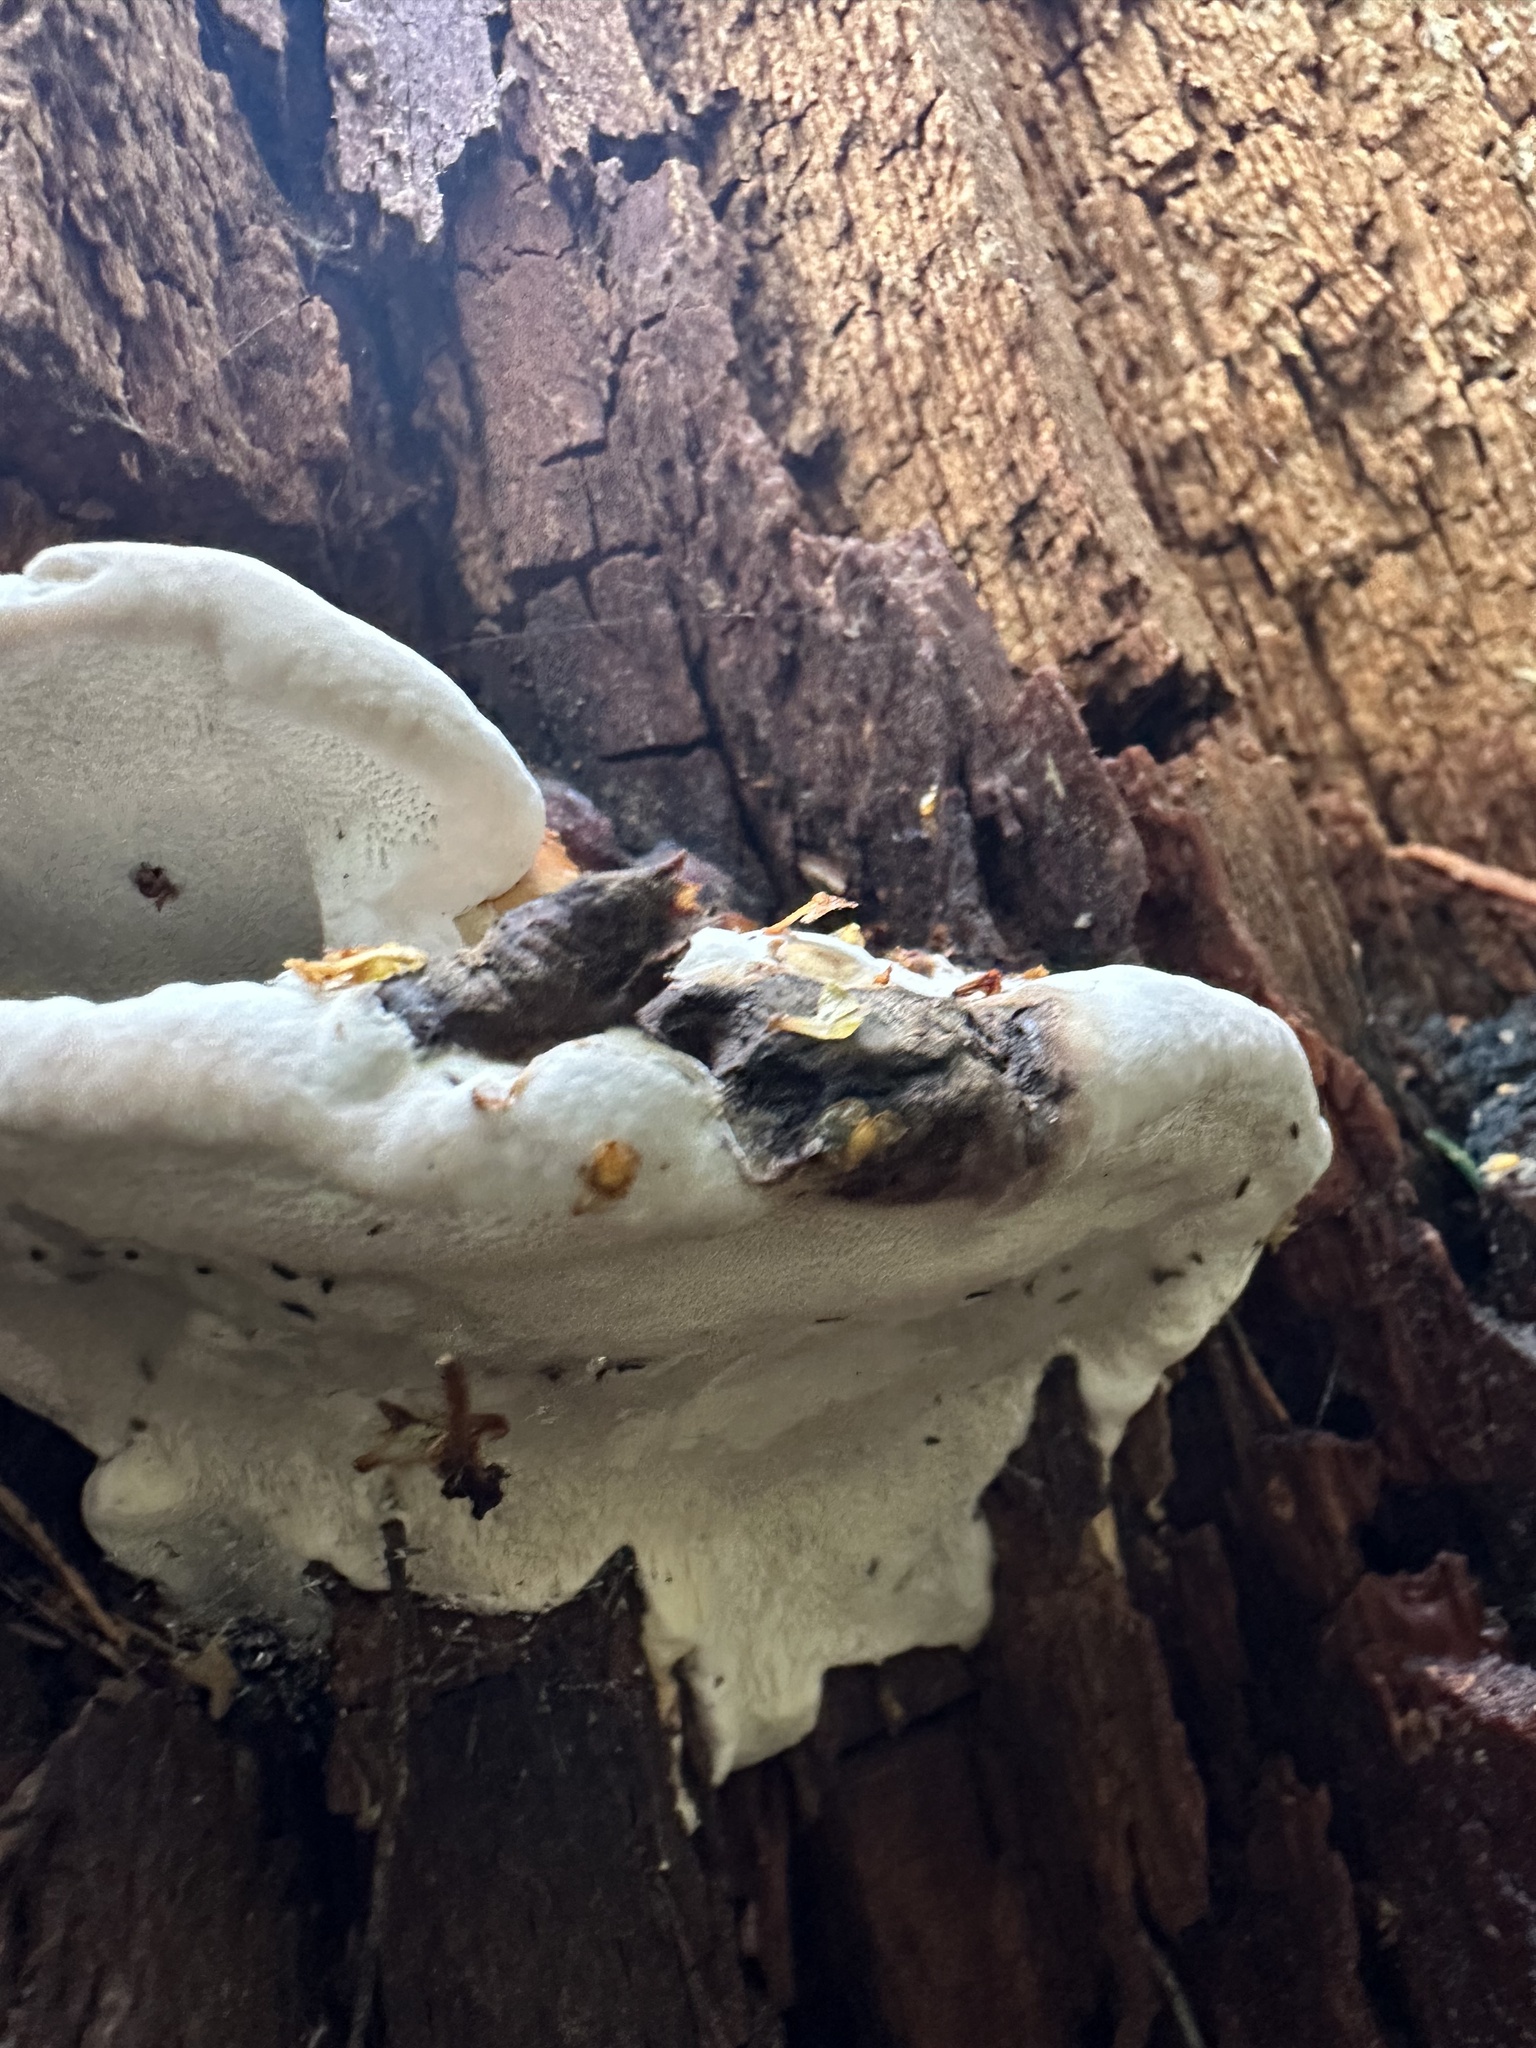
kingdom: Fungi
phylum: Basidiomycota
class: Agaricomycetes
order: Polyporales
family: Fomitopsidaceae
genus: Fomitopsis
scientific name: Fomitopsis pinicola
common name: Red-belted bracket
